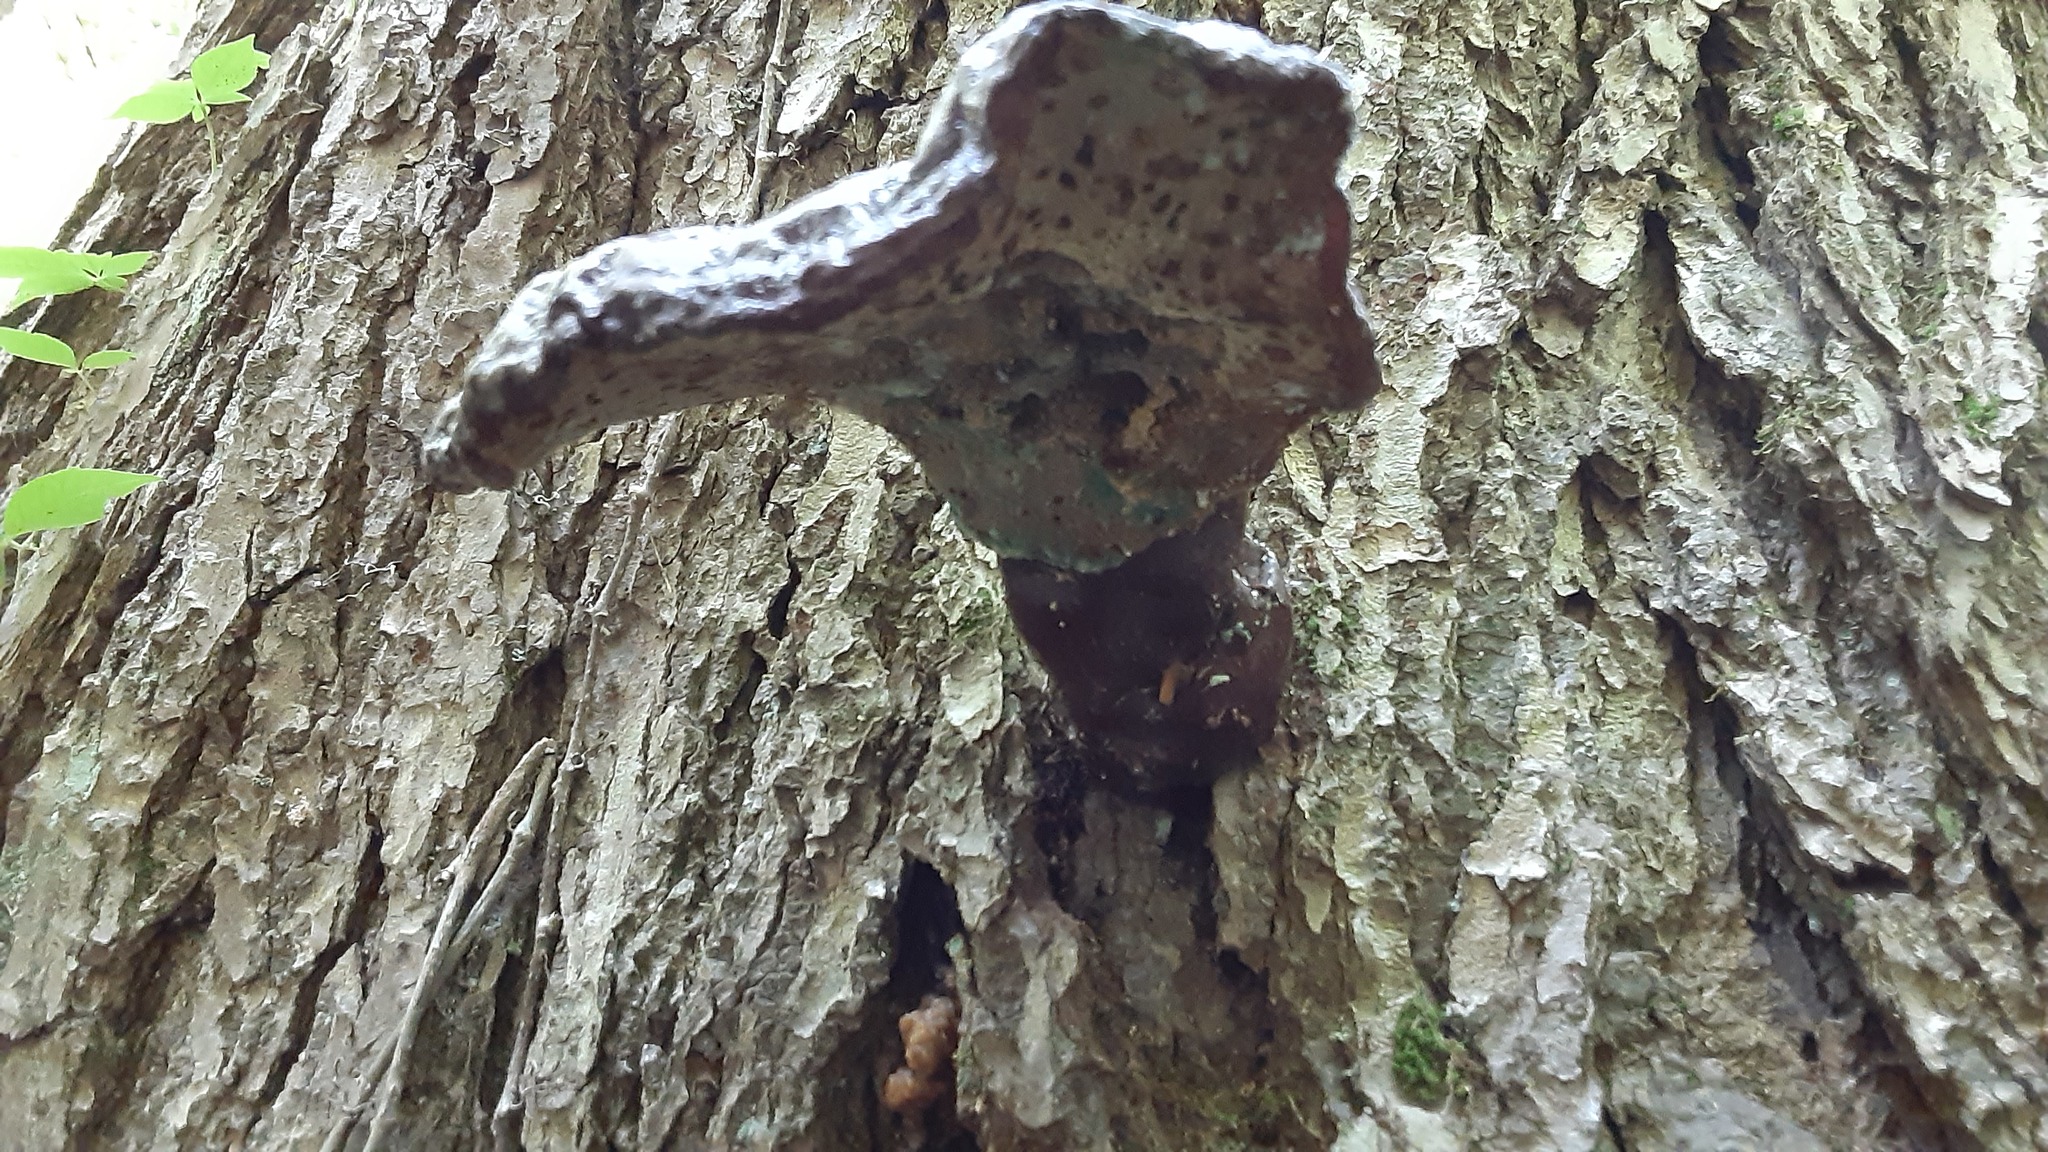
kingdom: Fungi
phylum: Basidiomycota
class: Agaricomycetes
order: Polyporales
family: Polyporaceae
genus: Ganoderma
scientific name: Ganoderma tsugae
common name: Hemlock varnish shelf
